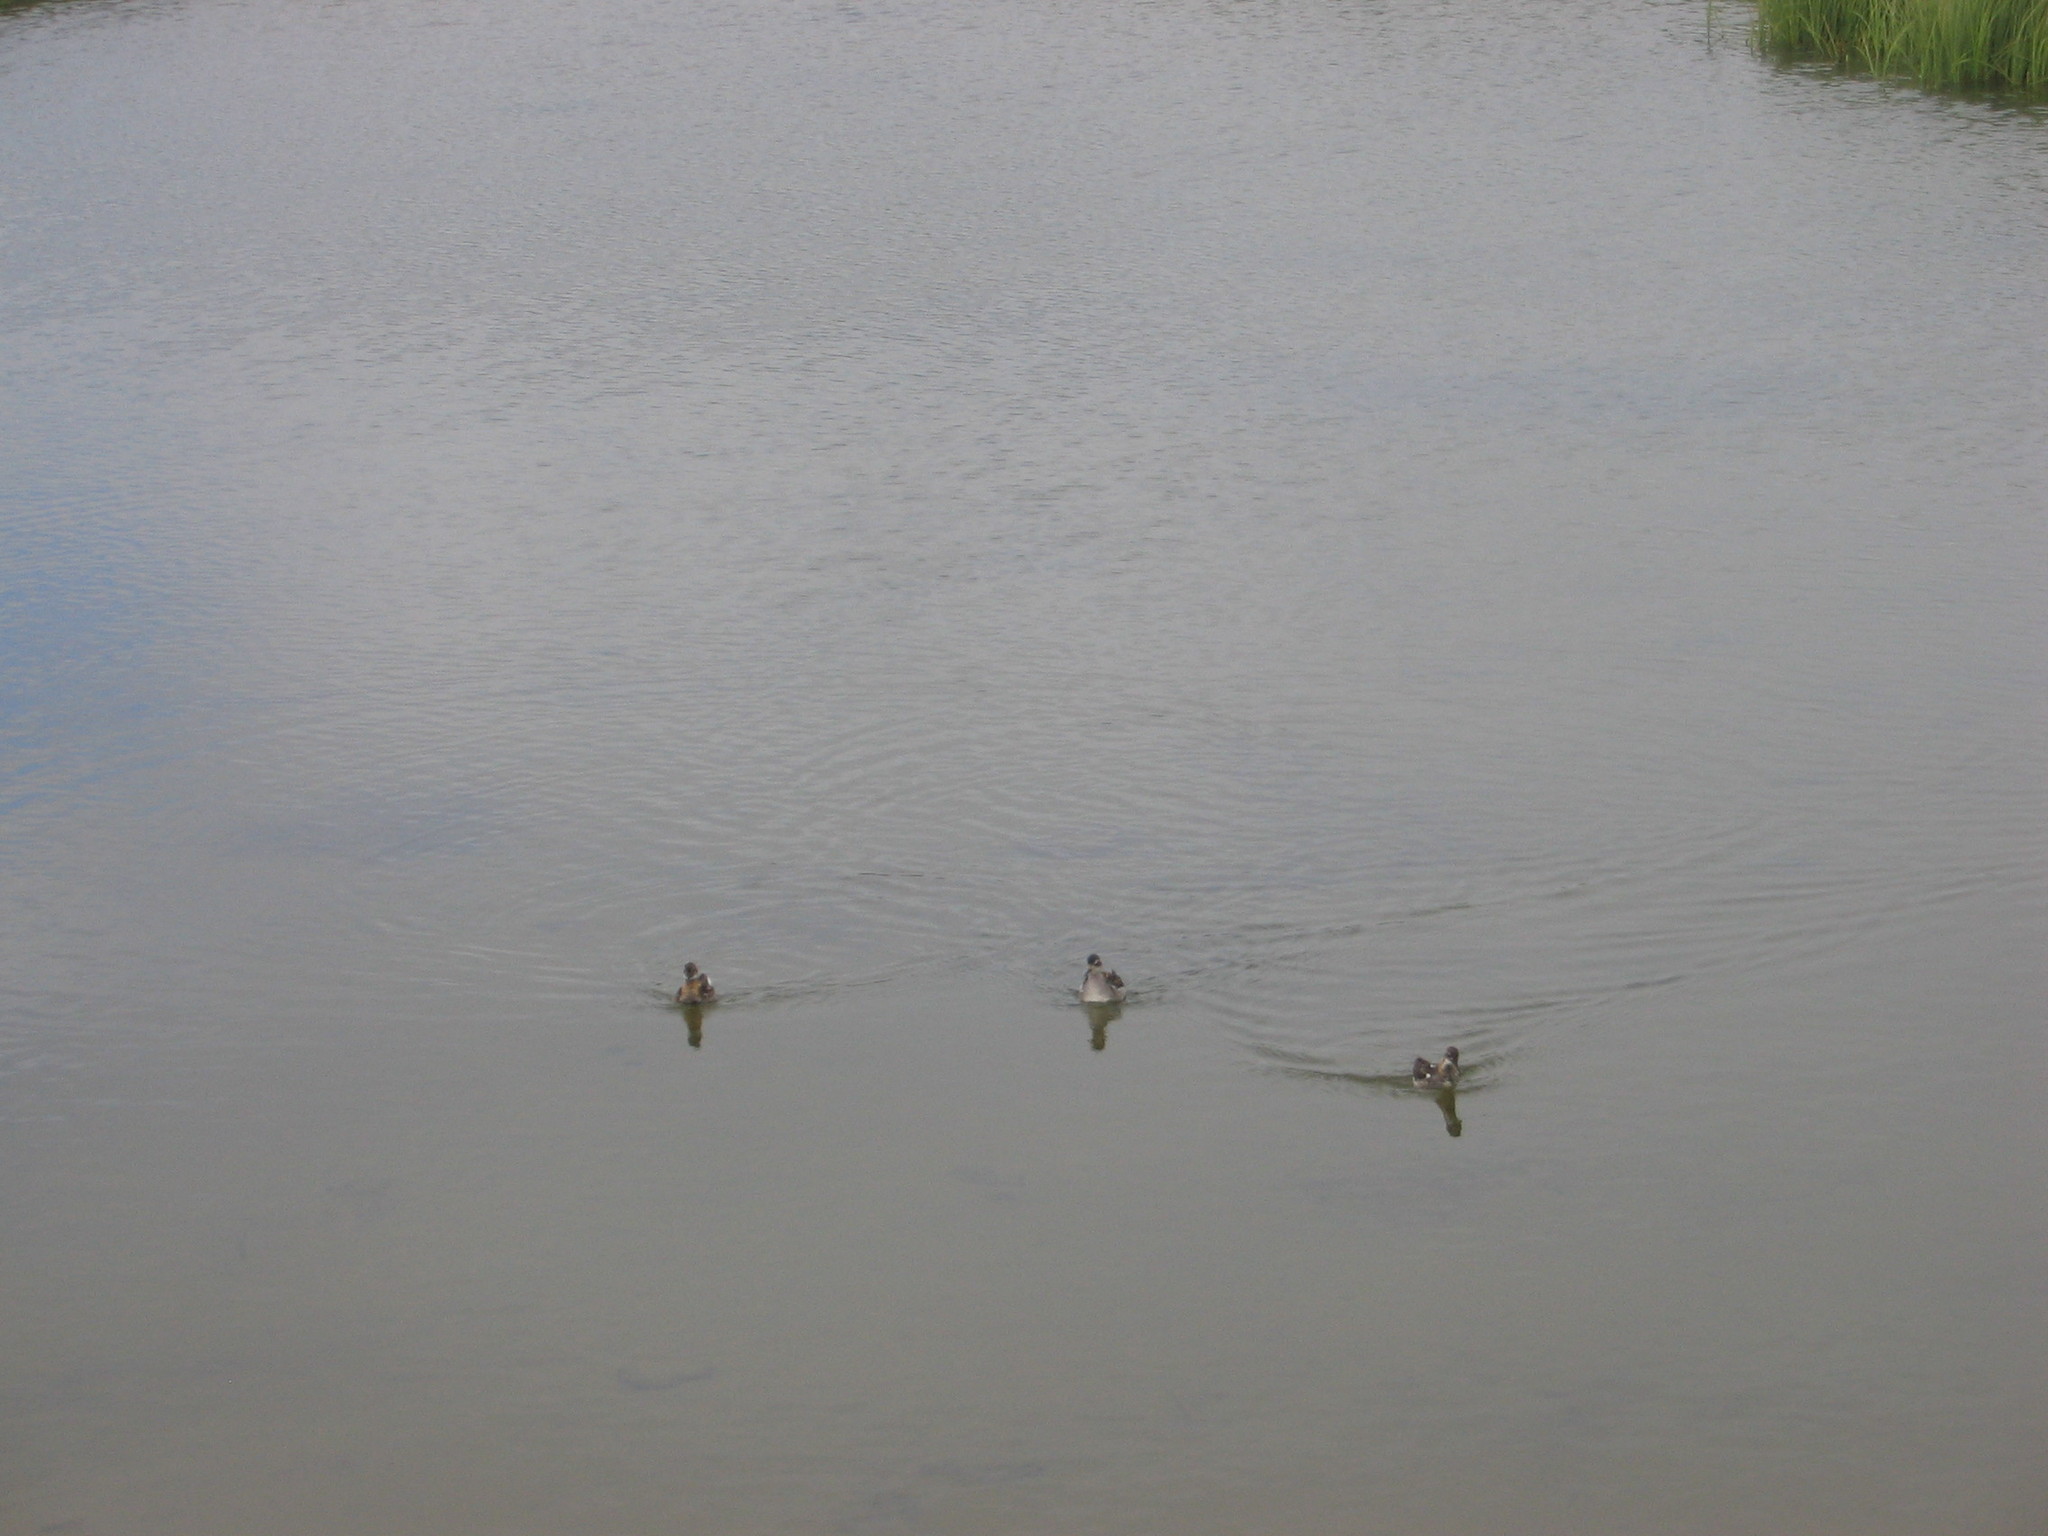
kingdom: Animalia
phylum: Chordata
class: Aves
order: Charadriiformes
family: Scolopacidae
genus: Phalaropus
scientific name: Phalaropus lobatus
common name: Red-necked phalarope
